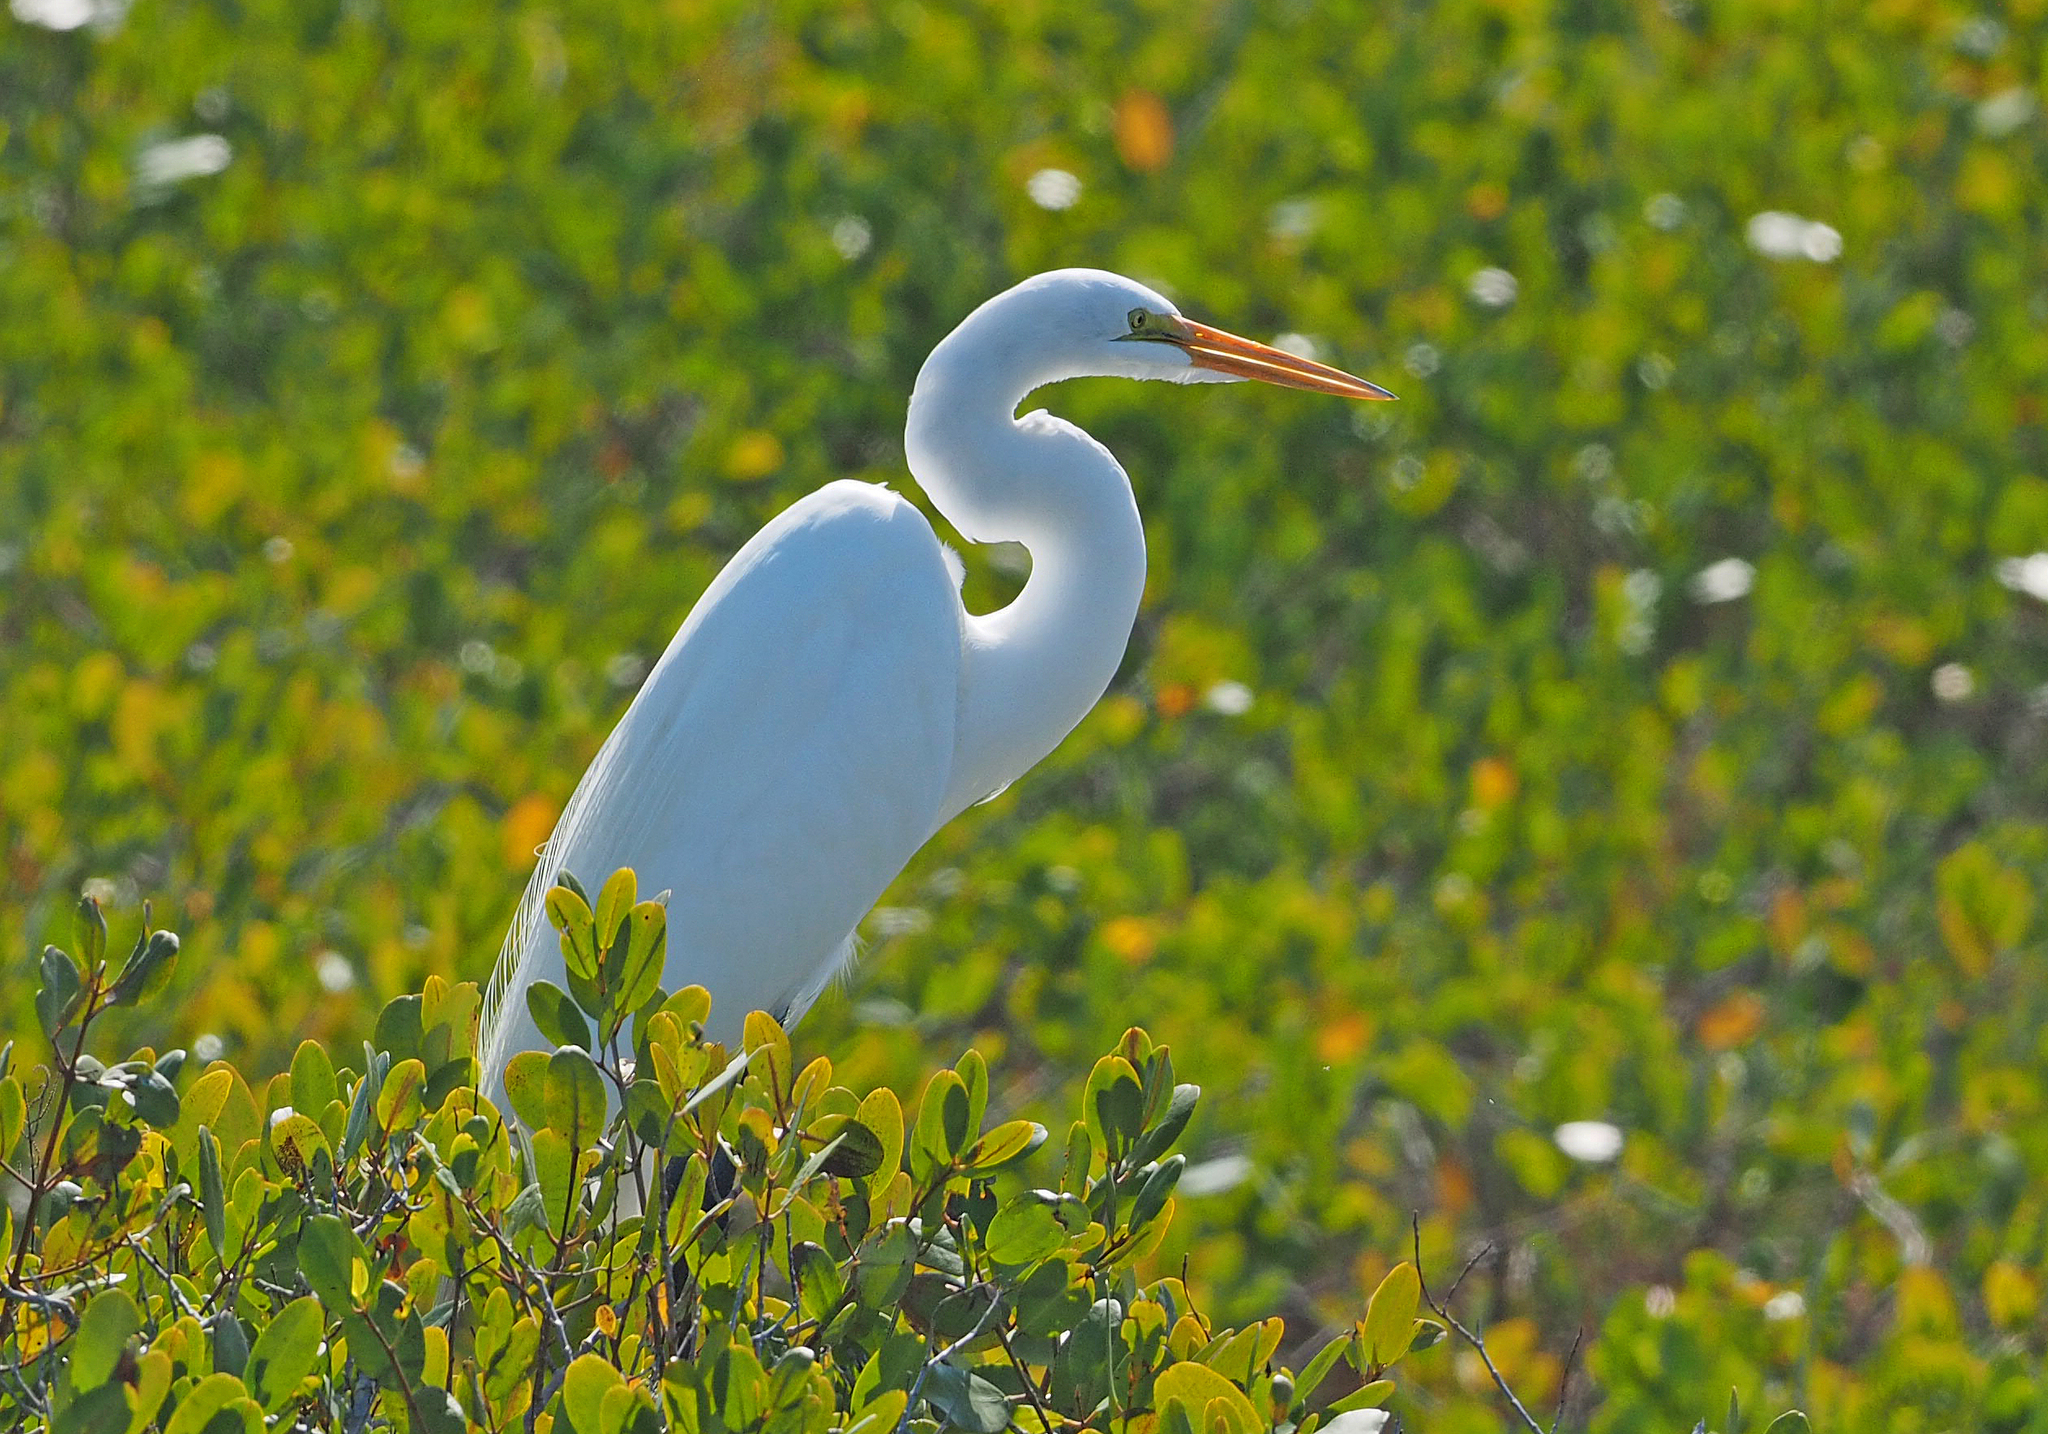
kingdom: Animalia
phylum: Chordata
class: Aves
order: Pelecaniformes
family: Ardeidae
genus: Ardea
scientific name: Ardea alba
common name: Great egret
